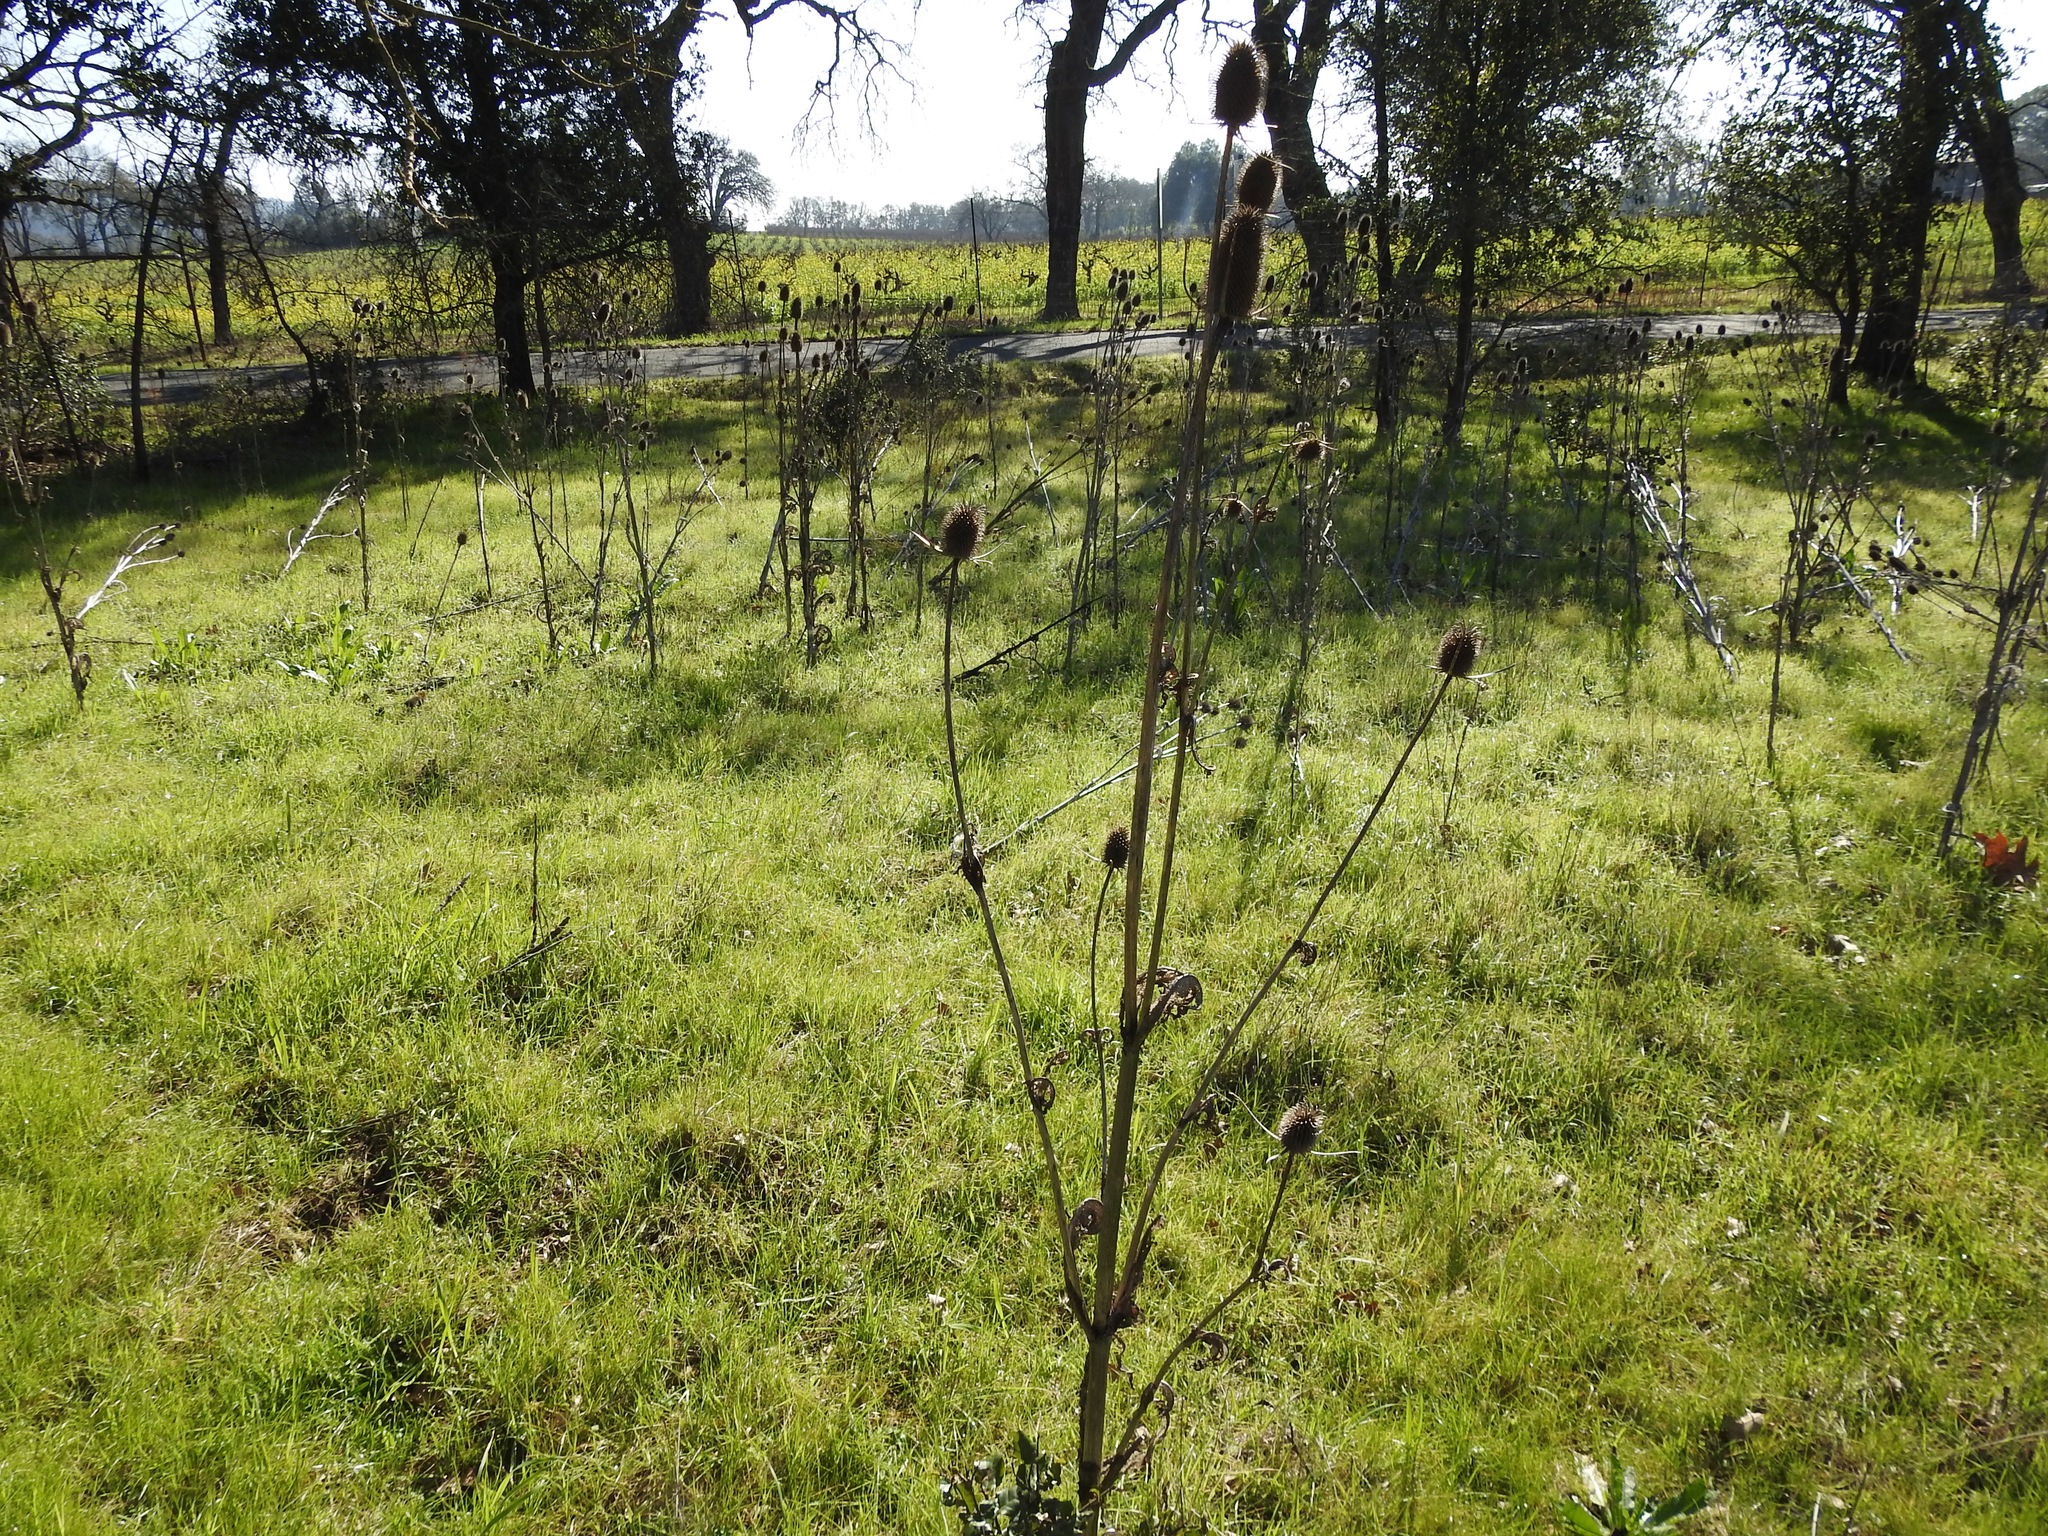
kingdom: Plantae
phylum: Tracheophyta
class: Magnoliopsida
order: Dipsacales
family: Caprifoliaceae
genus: Dipsacus
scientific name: Dipsacus sativus
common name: Fuller's teasel
